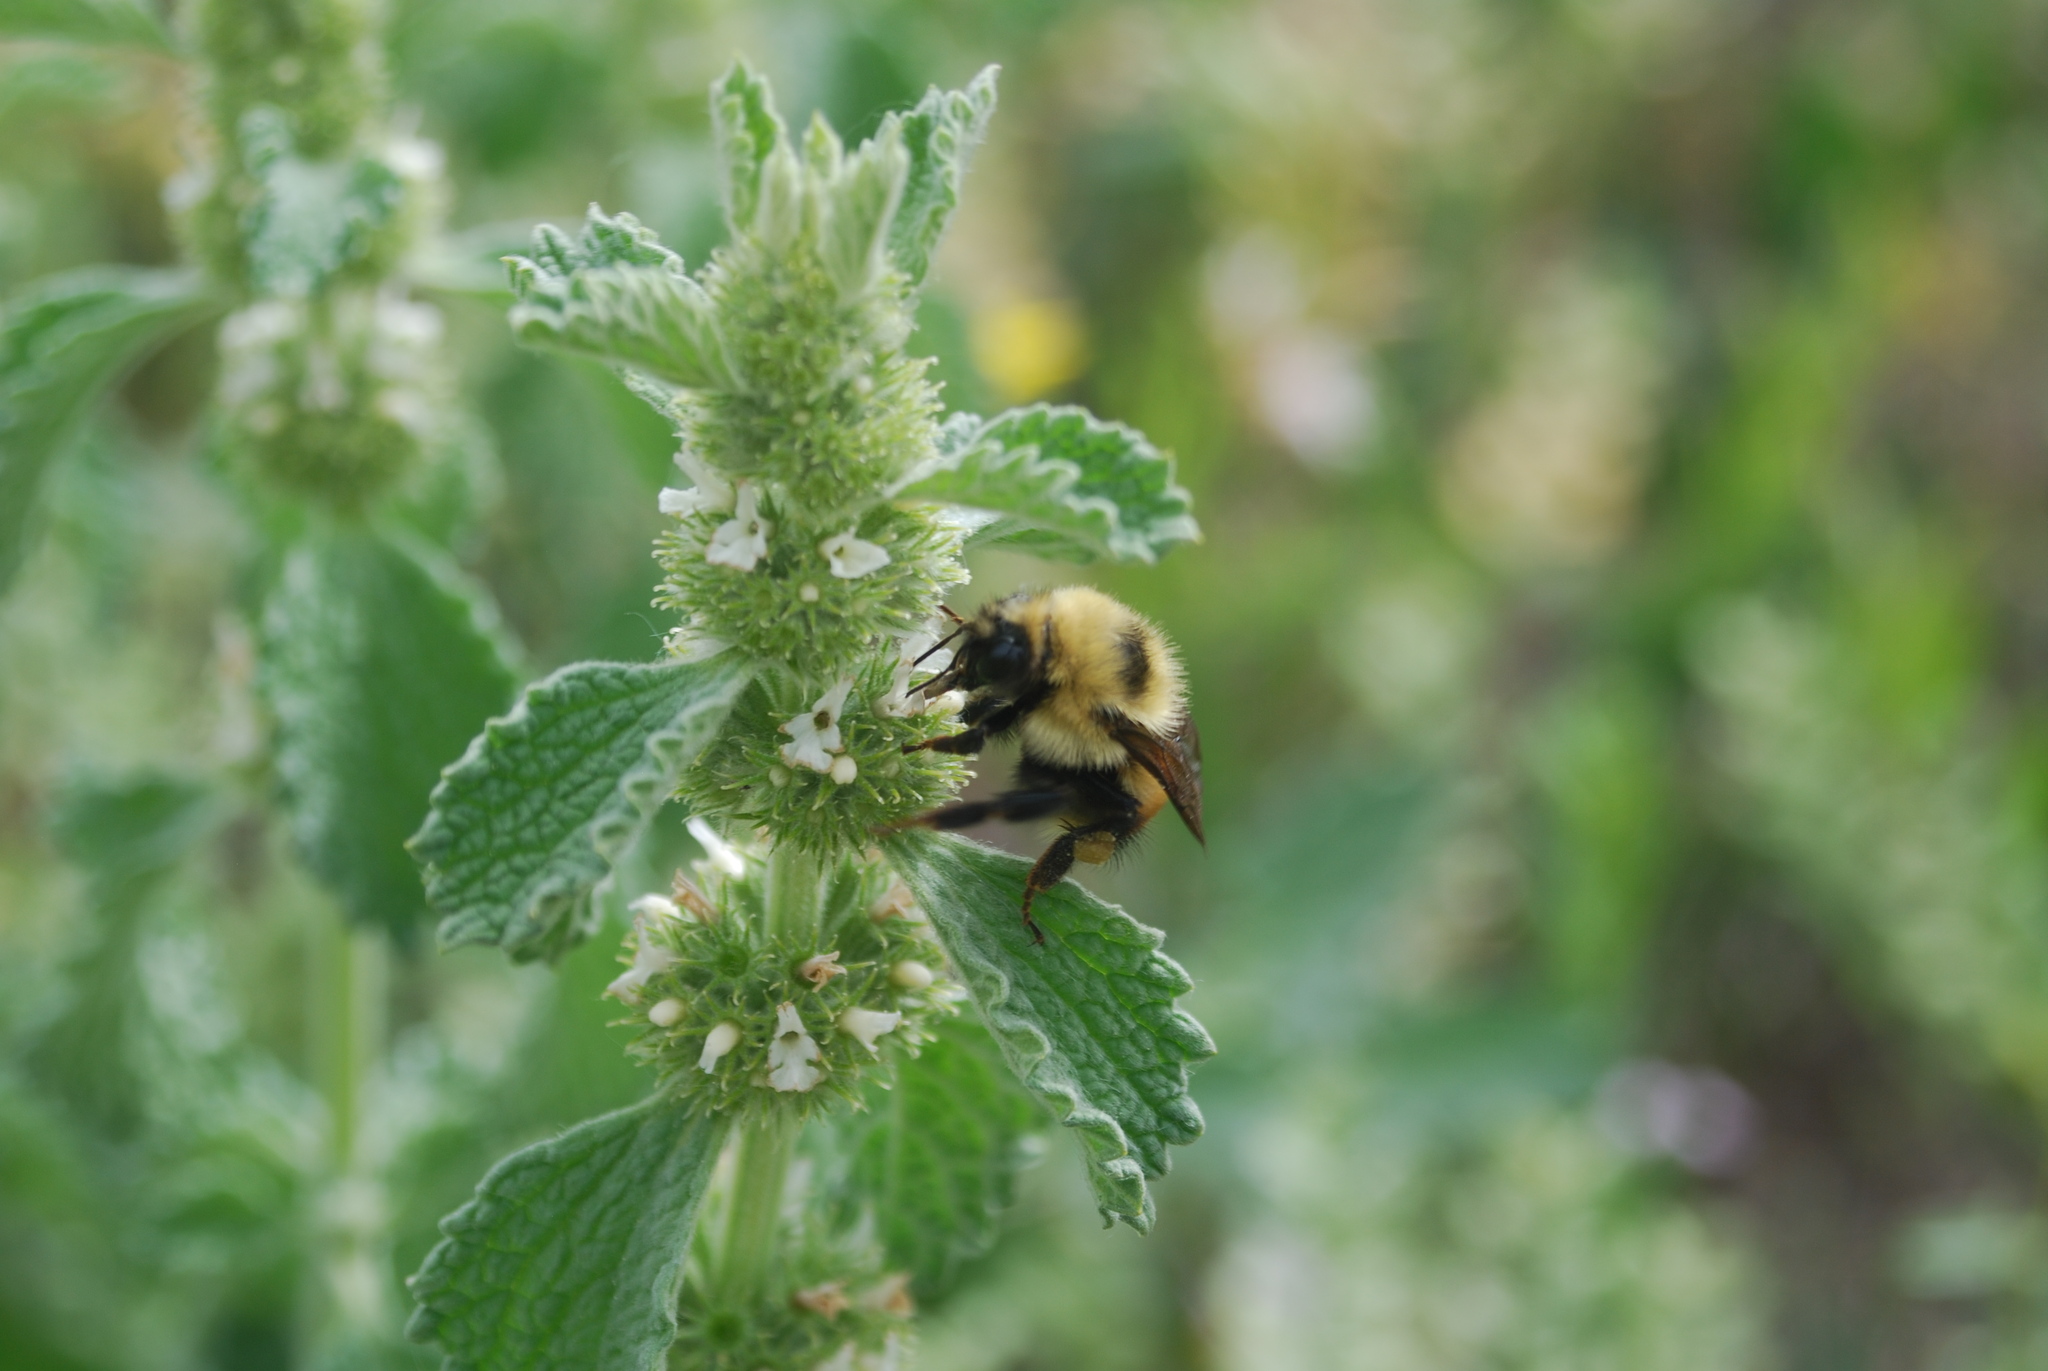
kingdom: Plantae
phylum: Tracheophyta
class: Magnoliopsida
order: Lamiales
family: Lamiaceae
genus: Marrubium
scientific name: Marrubium vulgare
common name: Horehound
